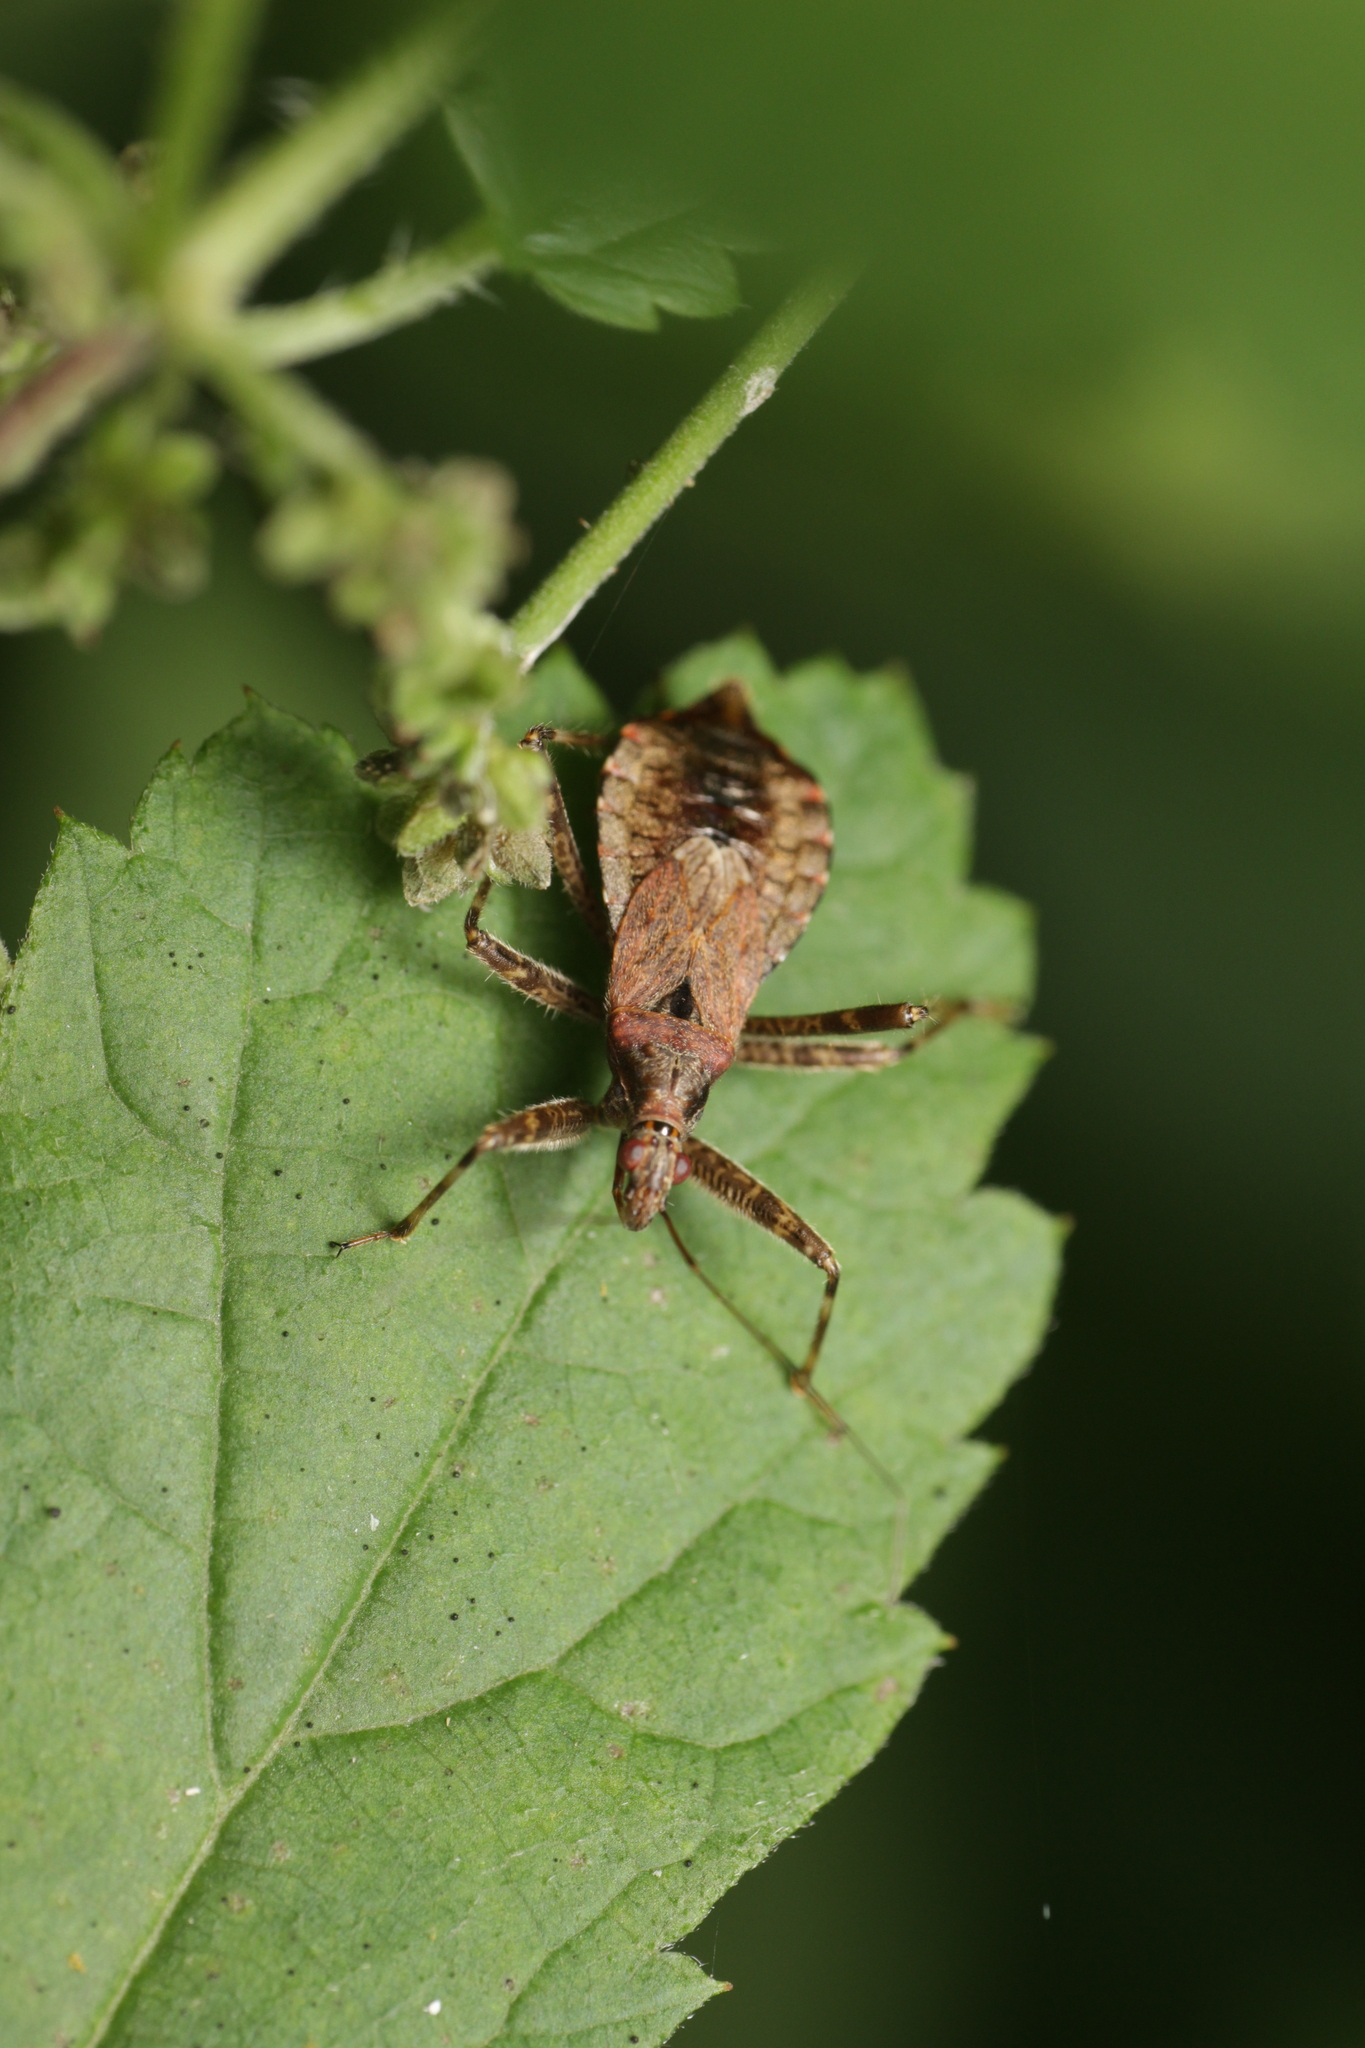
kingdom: Animalia
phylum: Arthropoda
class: Insecta
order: Hemiptera
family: Nabidae
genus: Himacerus
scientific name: Himacerus apterus
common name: Tree damsel bug
